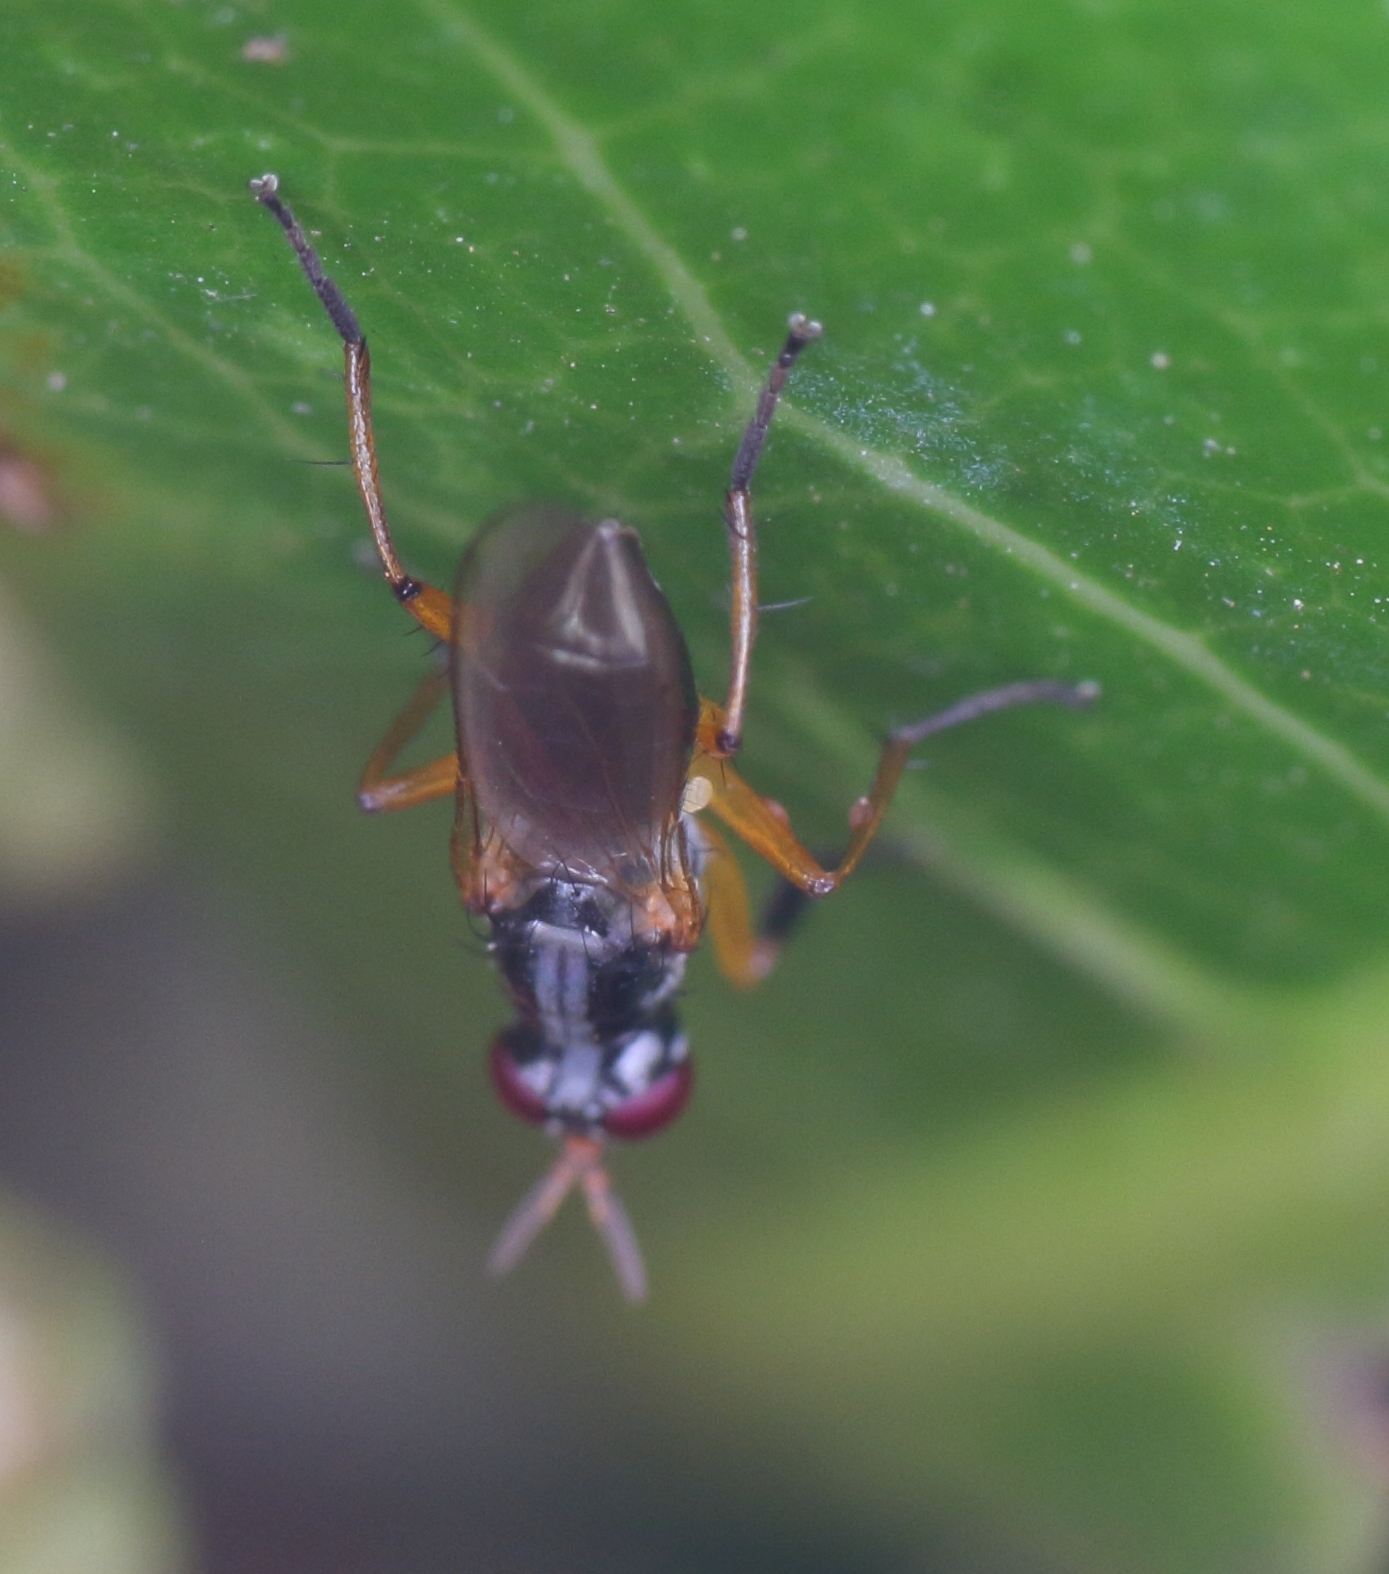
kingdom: Animalia
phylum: Arthropoda
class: Insecta
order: Diptera
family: Muscidae
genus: Anaphalantus
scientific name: Anaphalantus longicornis
